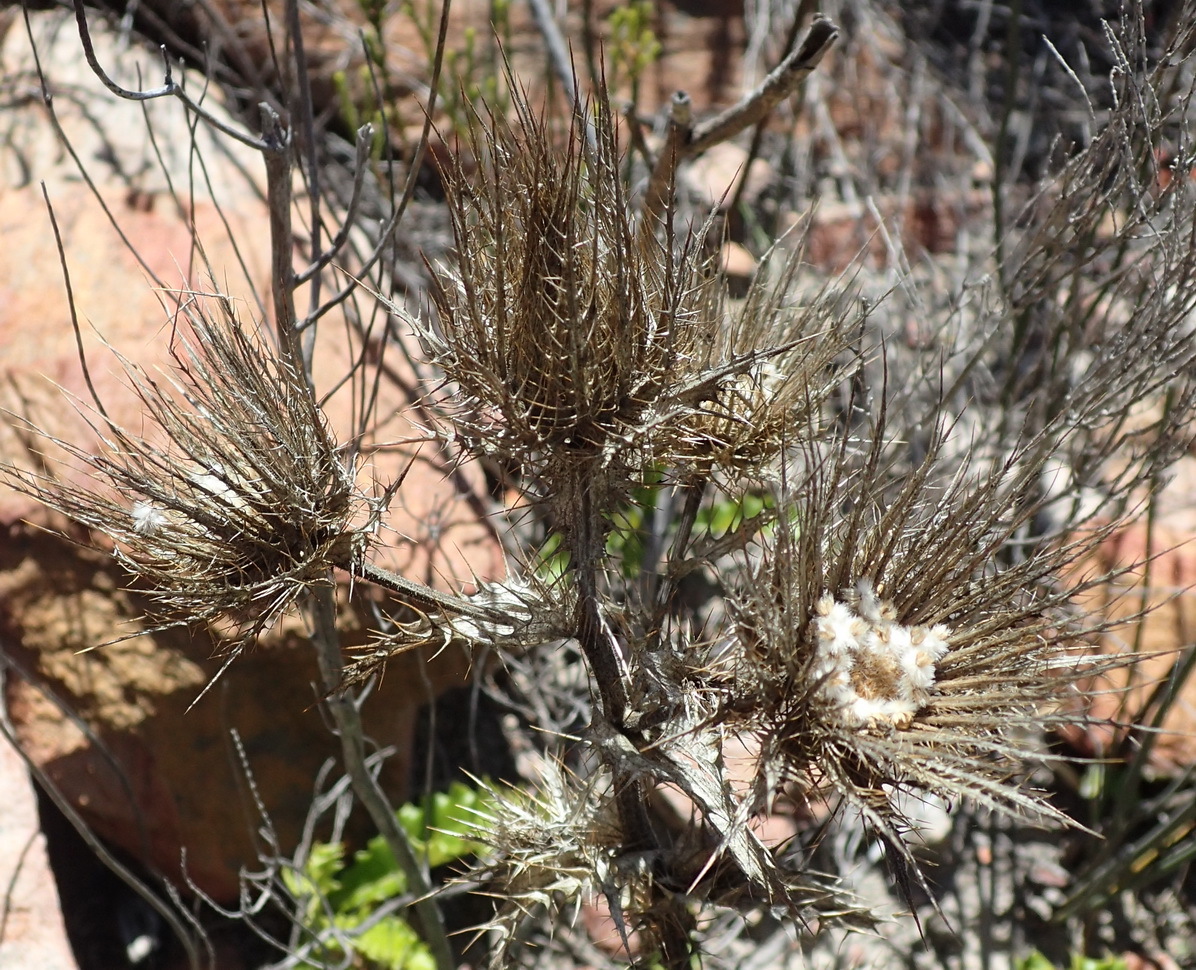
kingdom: Plantae
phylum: Tracheophyta
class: Magnoliopsida
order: Asterales
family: Asteraceae
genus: Berkheya
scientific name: Berkheya carlinoides
